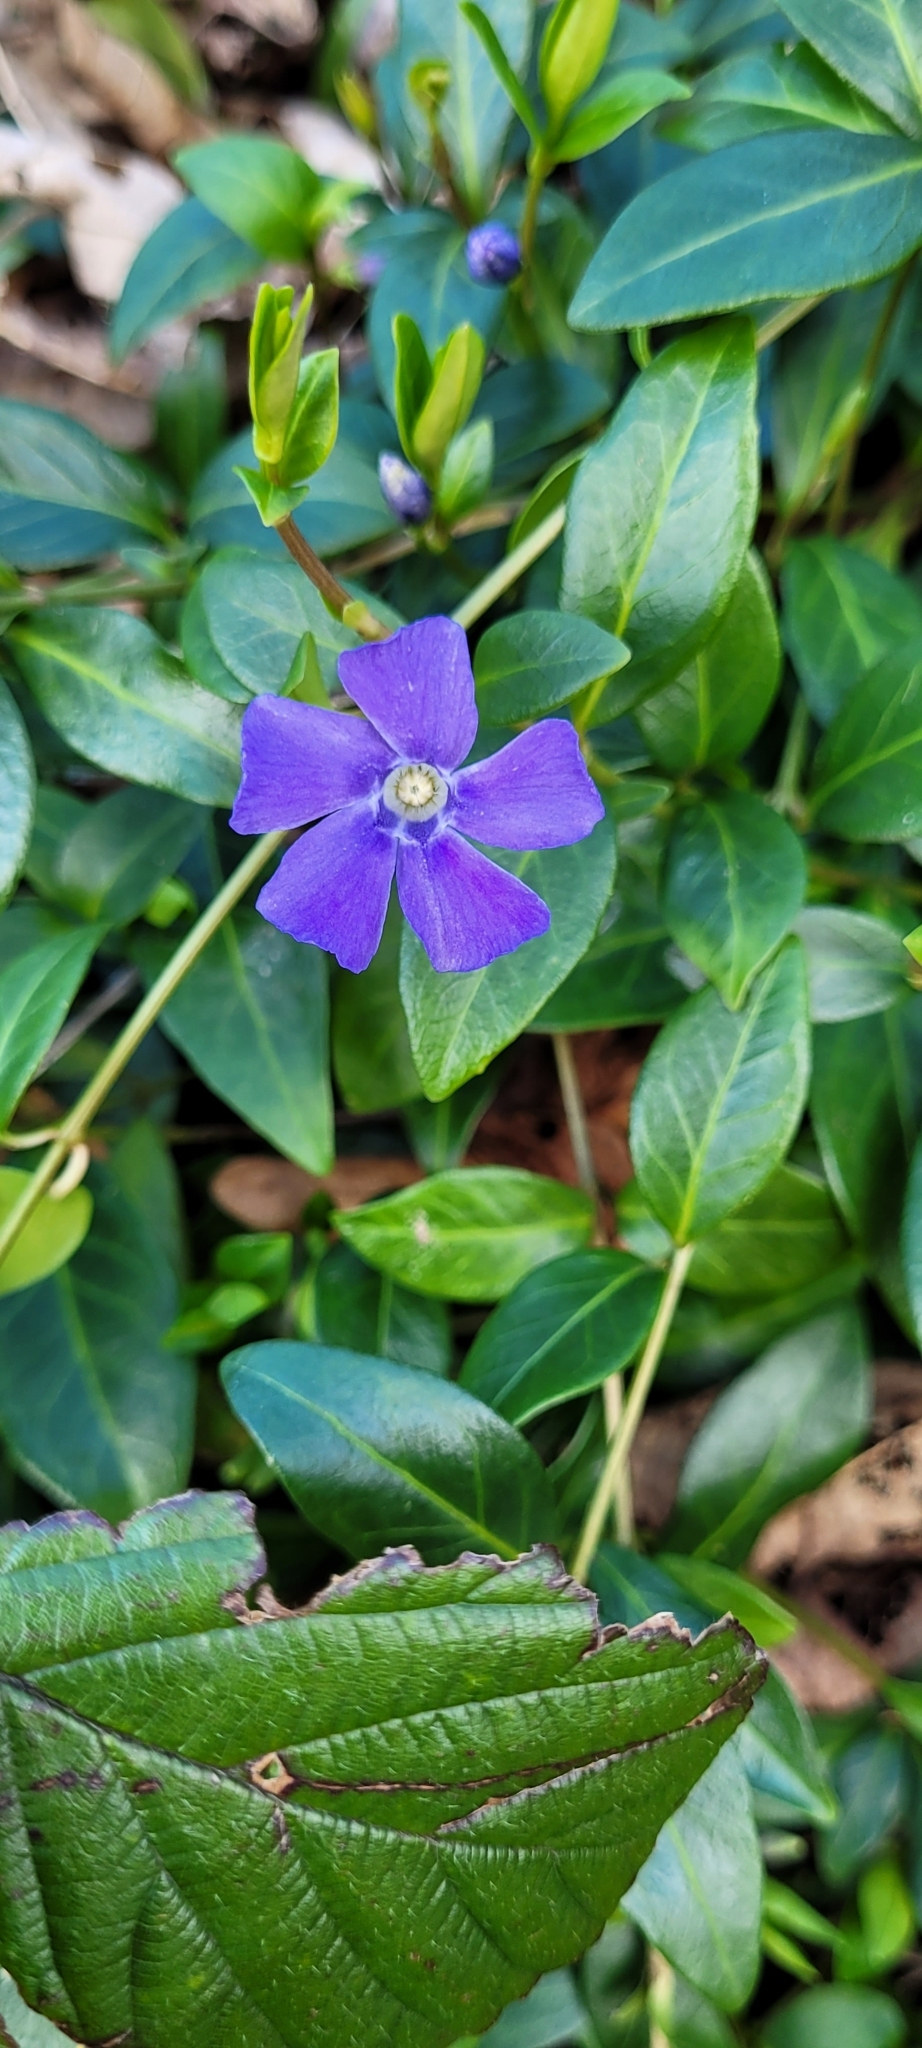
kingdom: Plantae
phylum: Tracheophyta
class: Magnoliopsida
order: Gentianales
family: Apocynaceae
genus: Vinca
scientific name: Vinca minor
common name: Lesser periwinkle
